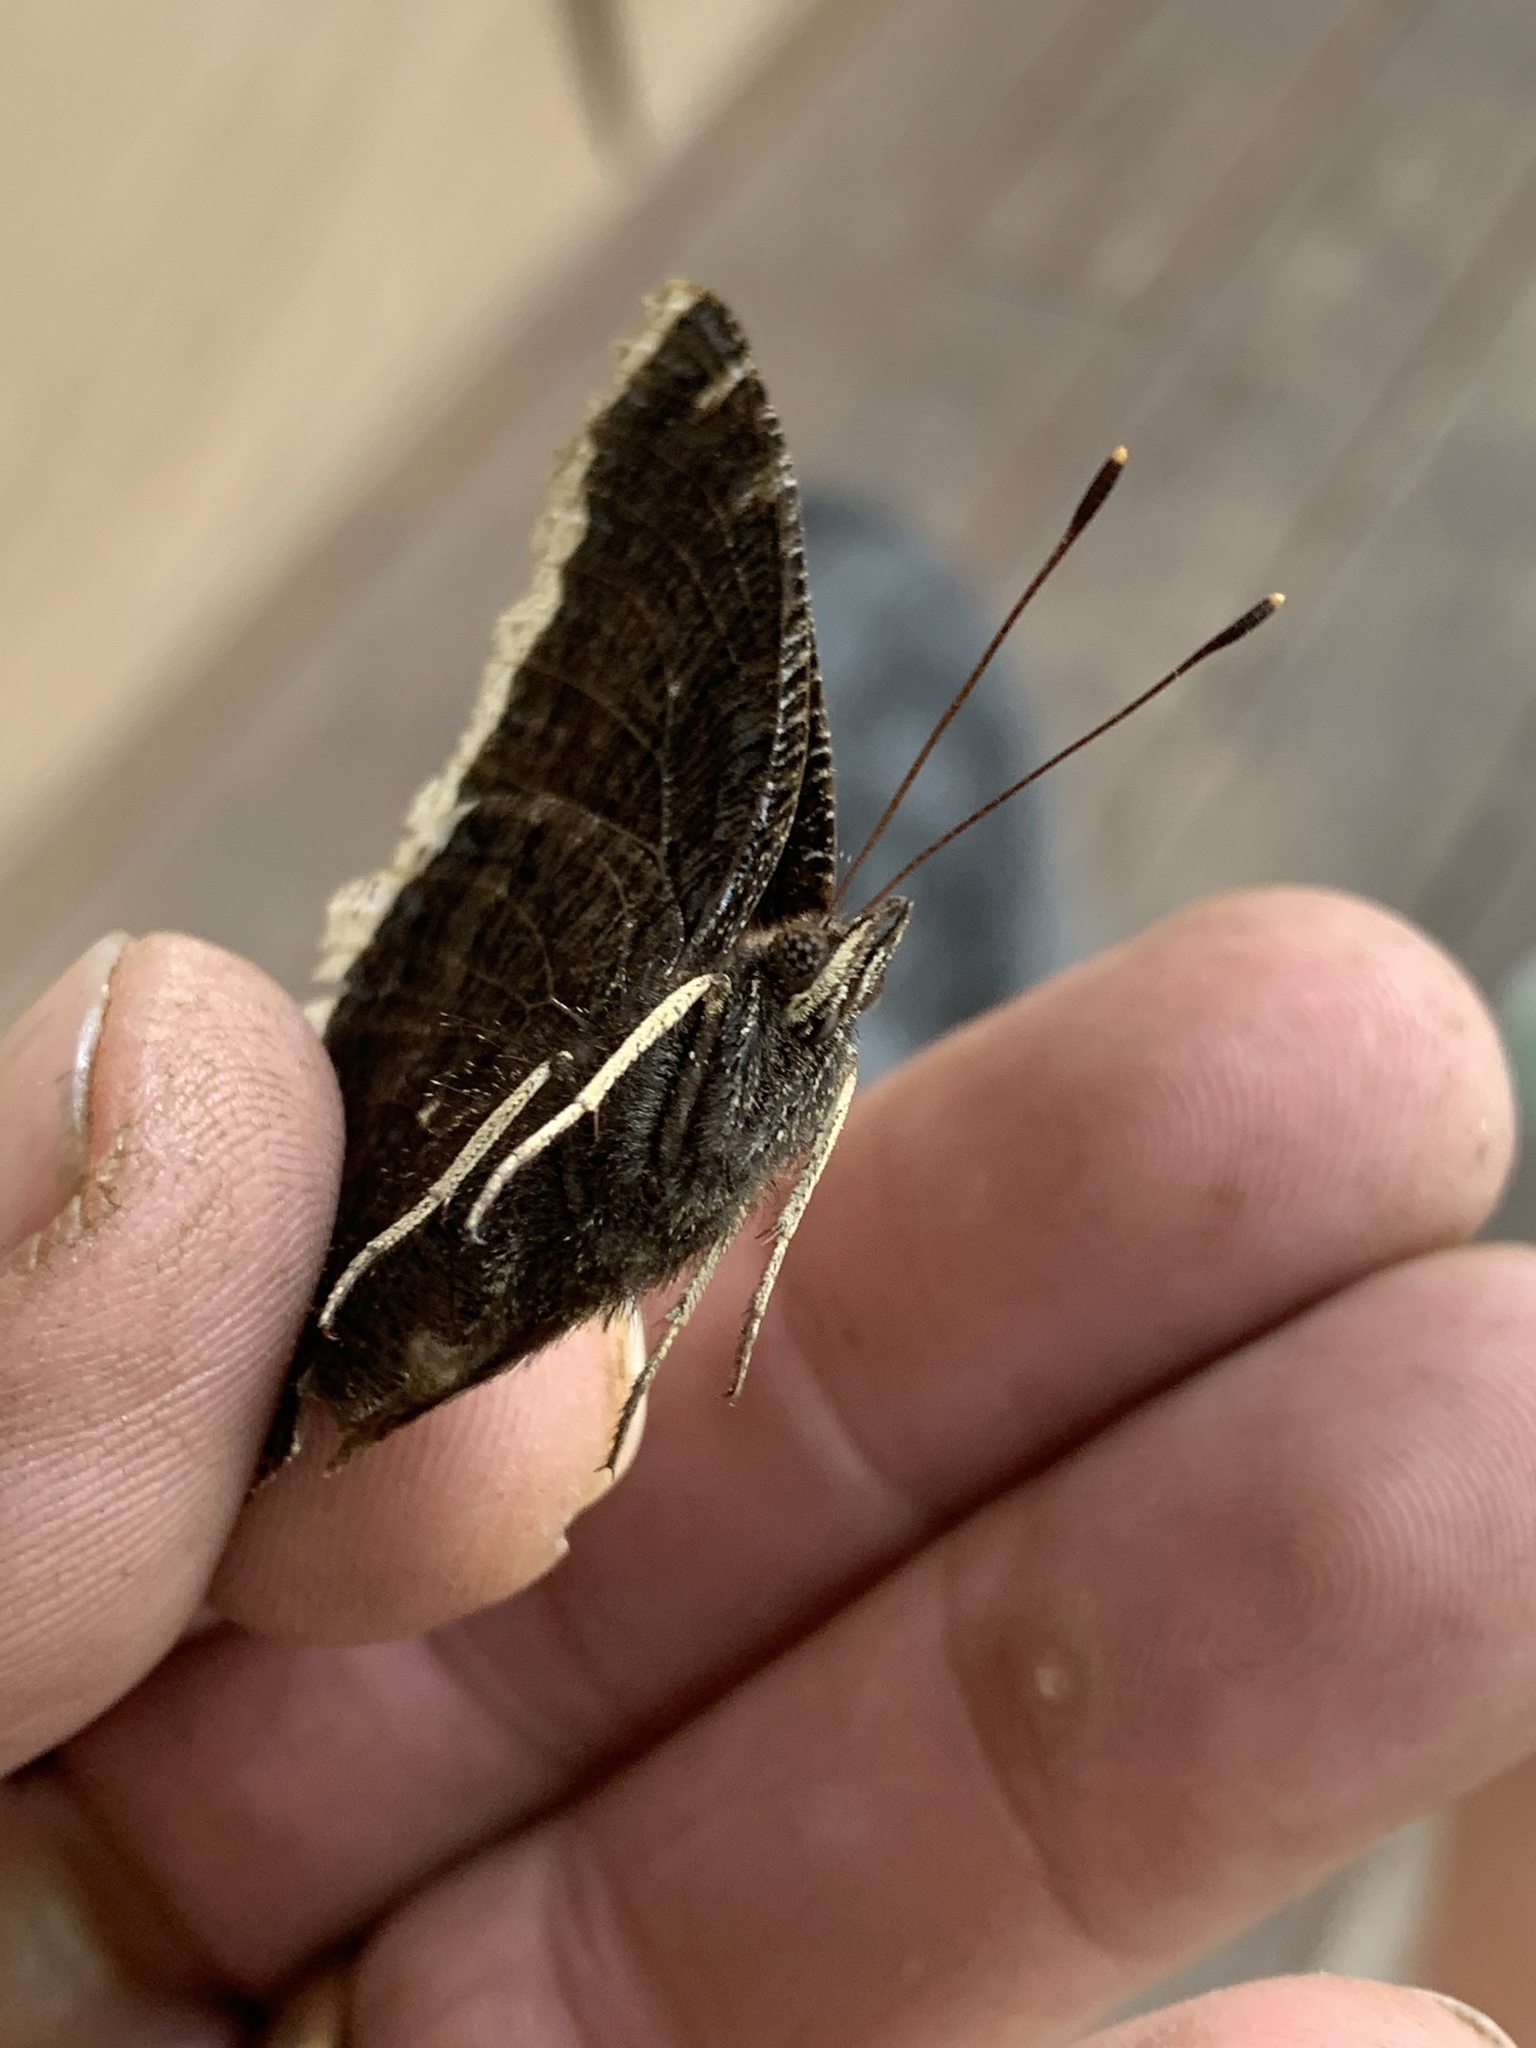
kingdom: Animalia
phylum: Arthropoda
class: Insecta
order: Lepidoptera
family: Nymphalidae
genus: Nymphalis
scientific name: Nymphalis antiopa
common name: Camberwell beauty
